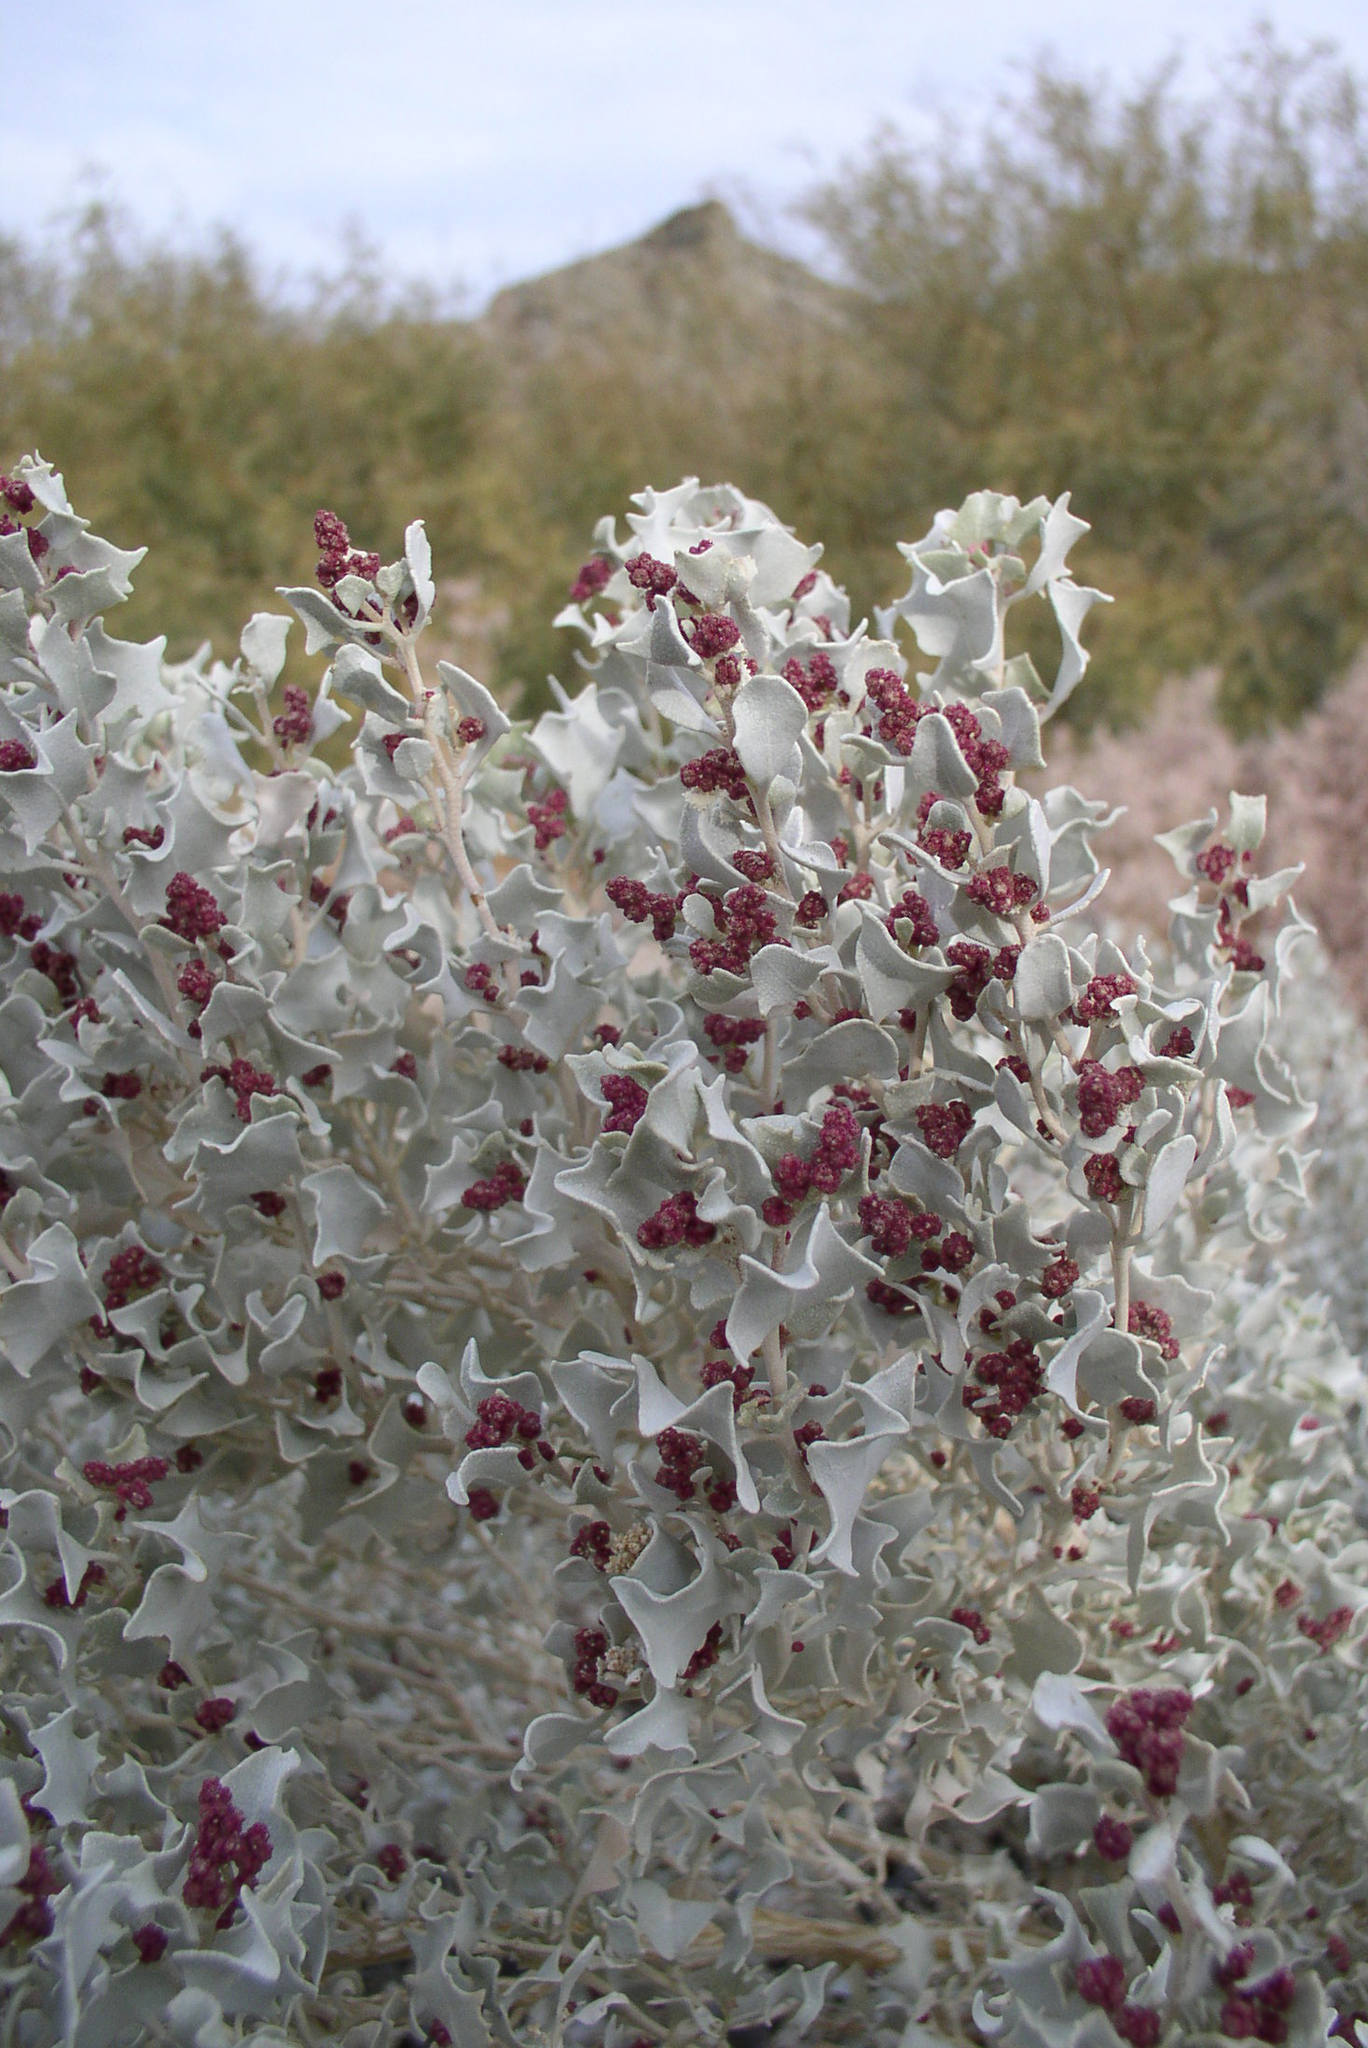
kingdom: Plantae
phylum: Tracheophyta
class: Magnoliopsida
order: Caryophyllales
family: Amaranthaceae
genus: Atriplex
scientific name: Atriplex hymenelytra
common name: Desert-holly
